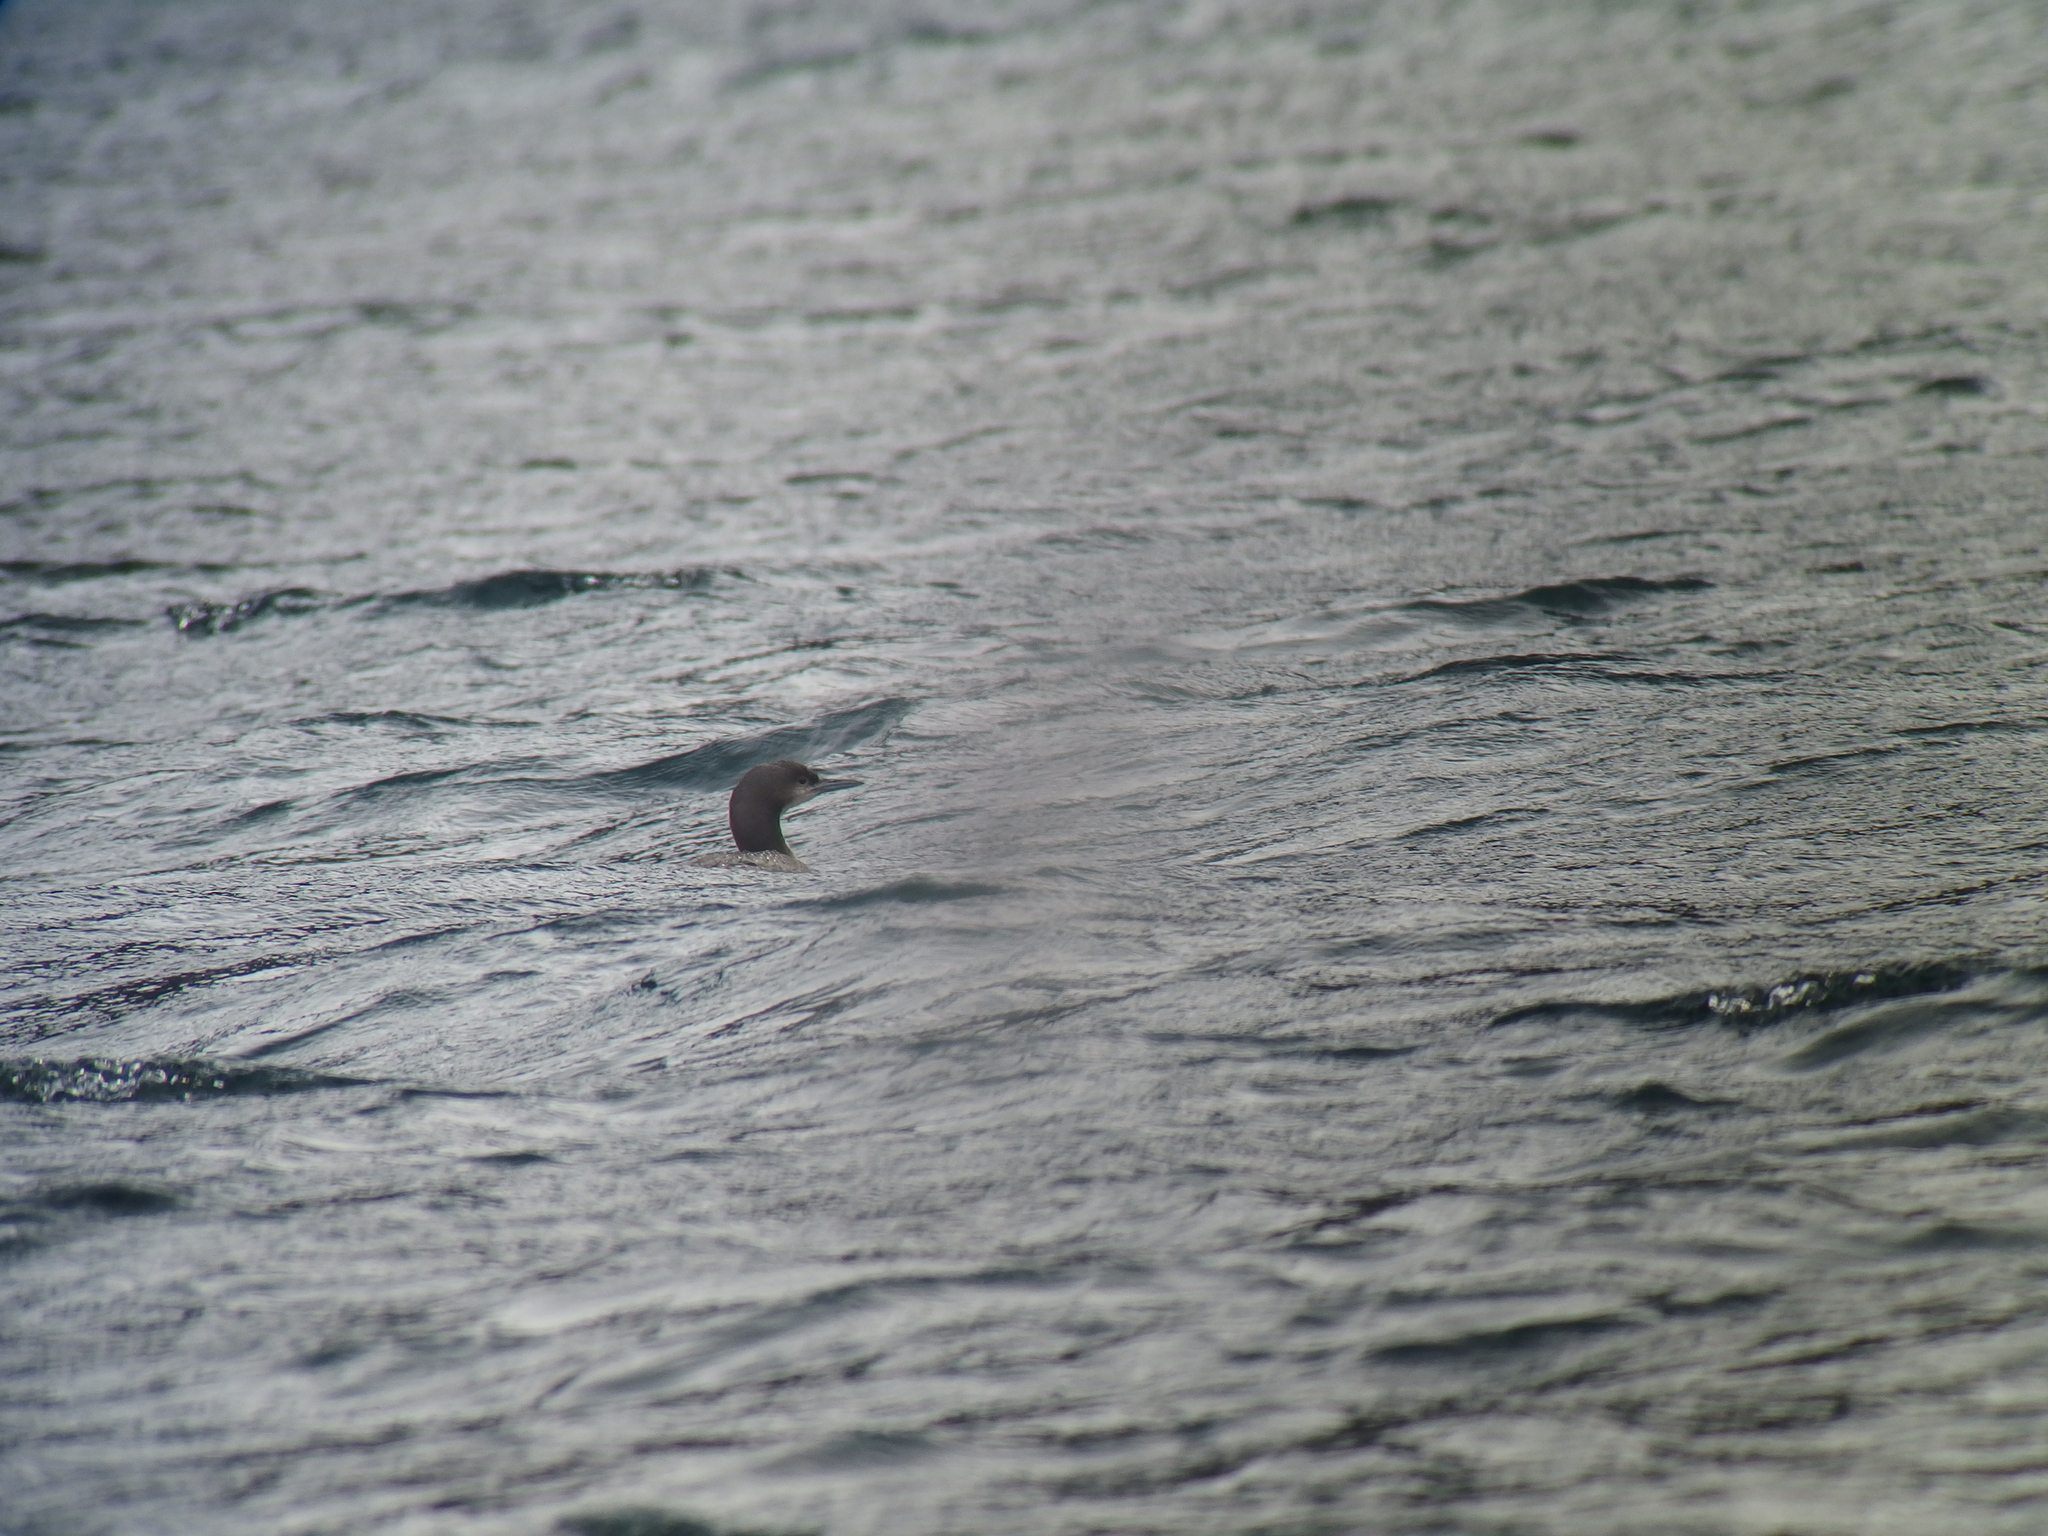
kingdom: Animalia
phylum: Chordata
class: Aves
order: Gaviiformes
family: Gaviidae
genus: Gavia
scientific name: Gavia pacifica
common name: Pacific loon
